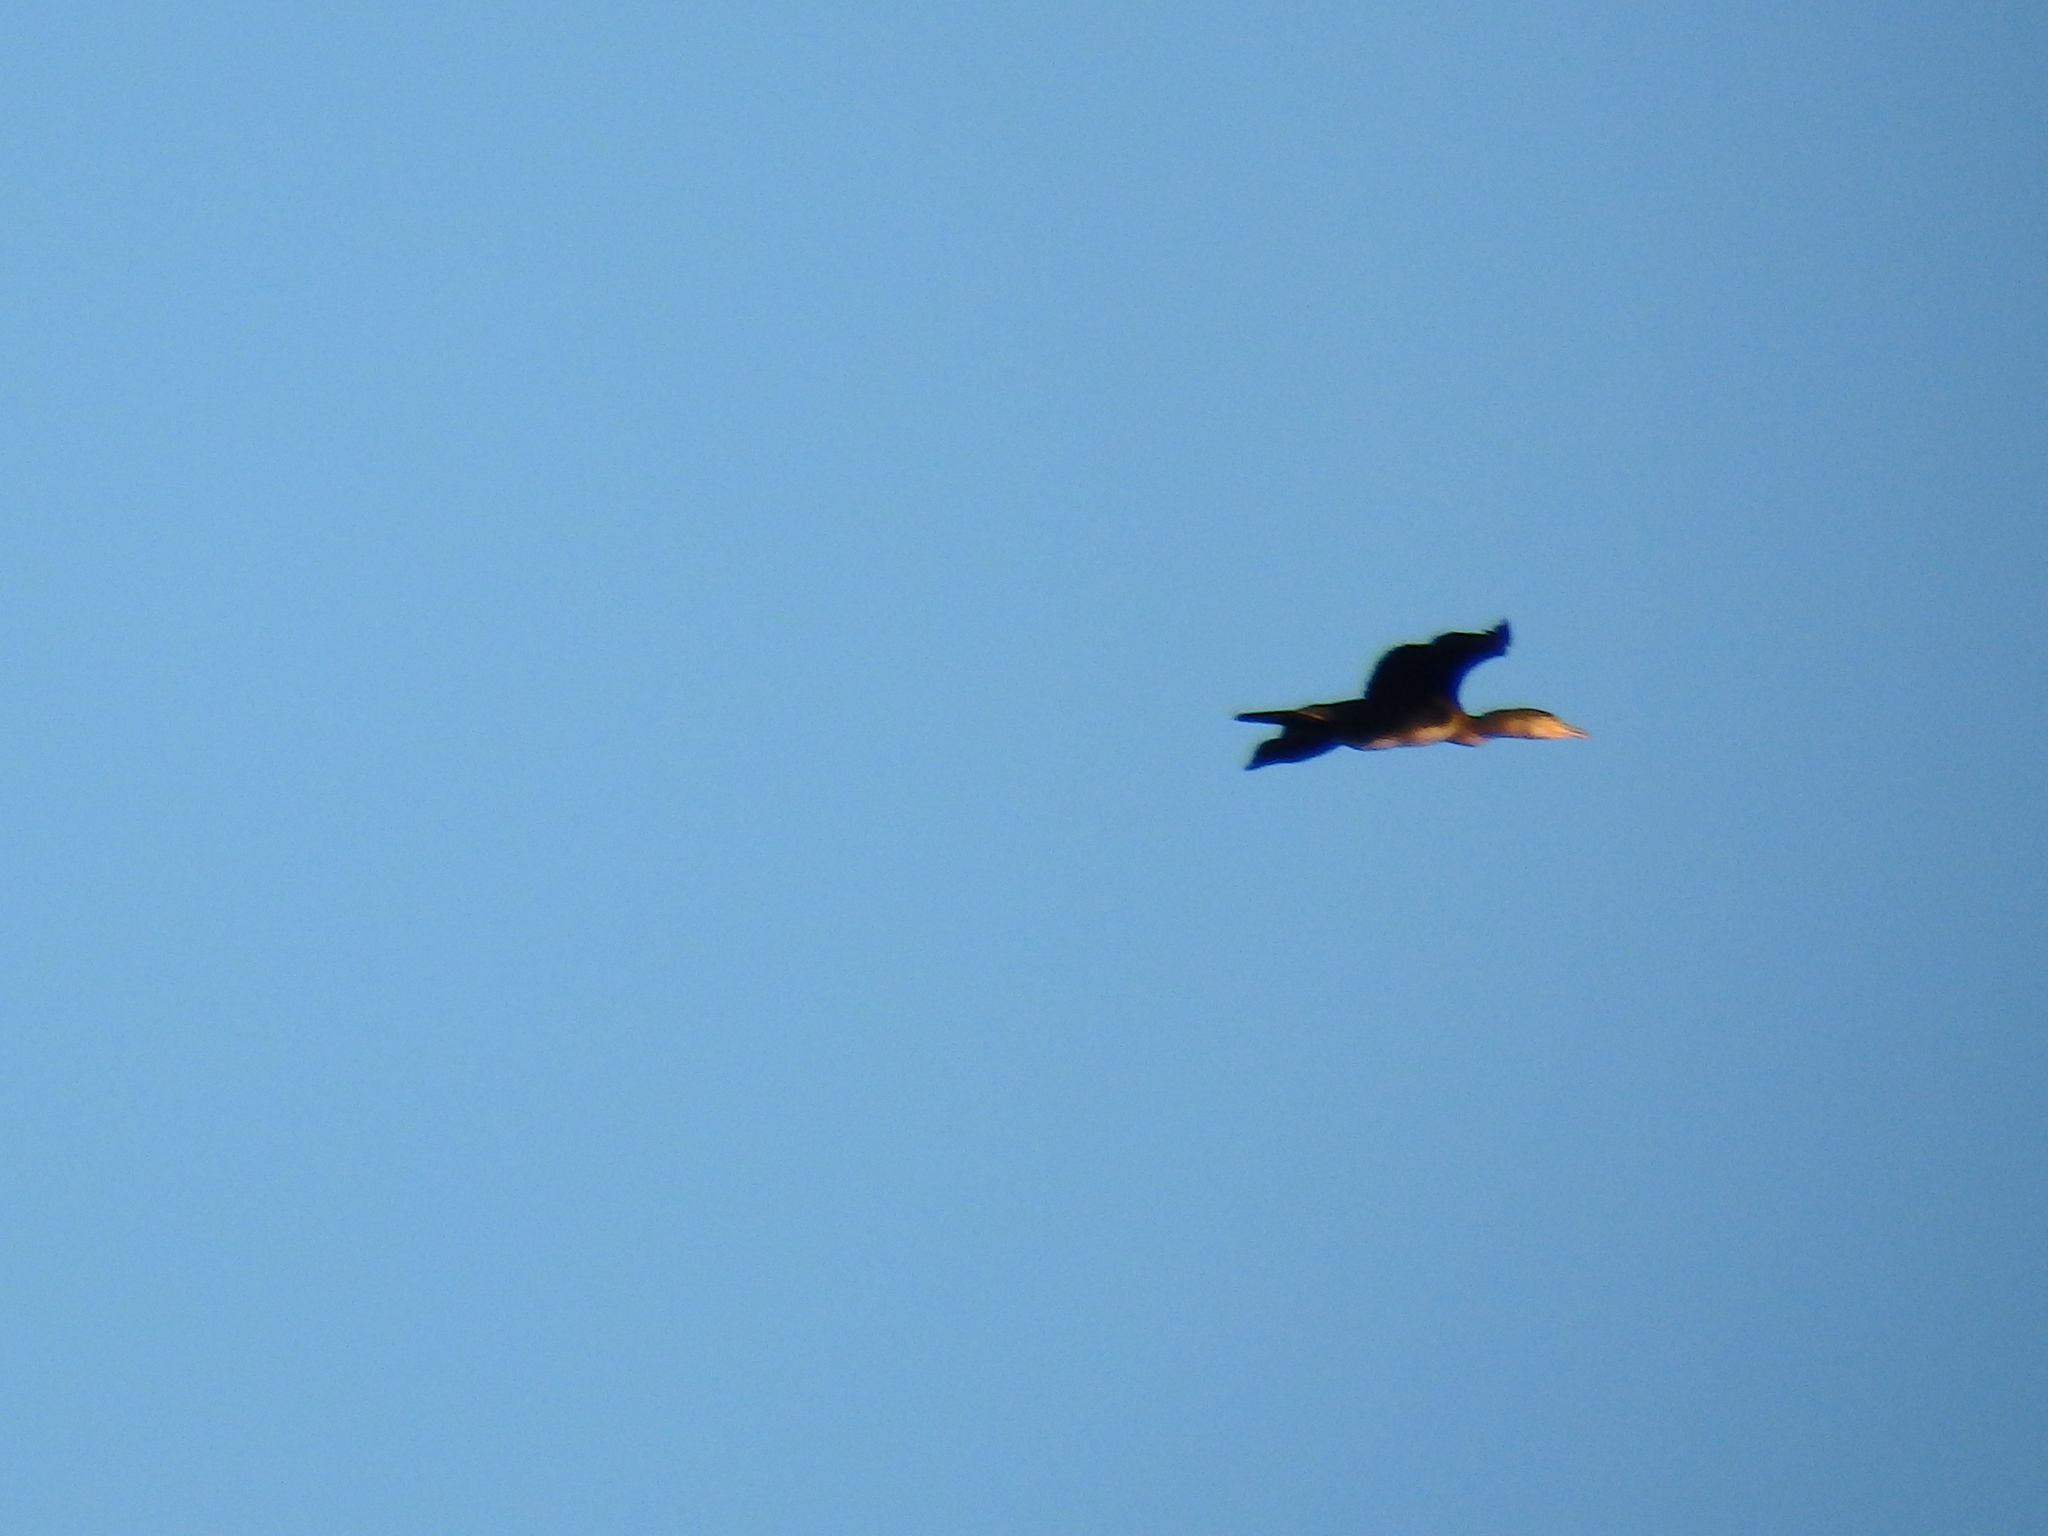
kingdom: Animalia
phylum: Chordata
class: Aves
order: Suliformes
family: Phalacrocoracidae
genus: Phalacrocorax
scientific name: Phalacrocorax carbo
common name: Great cormorant
